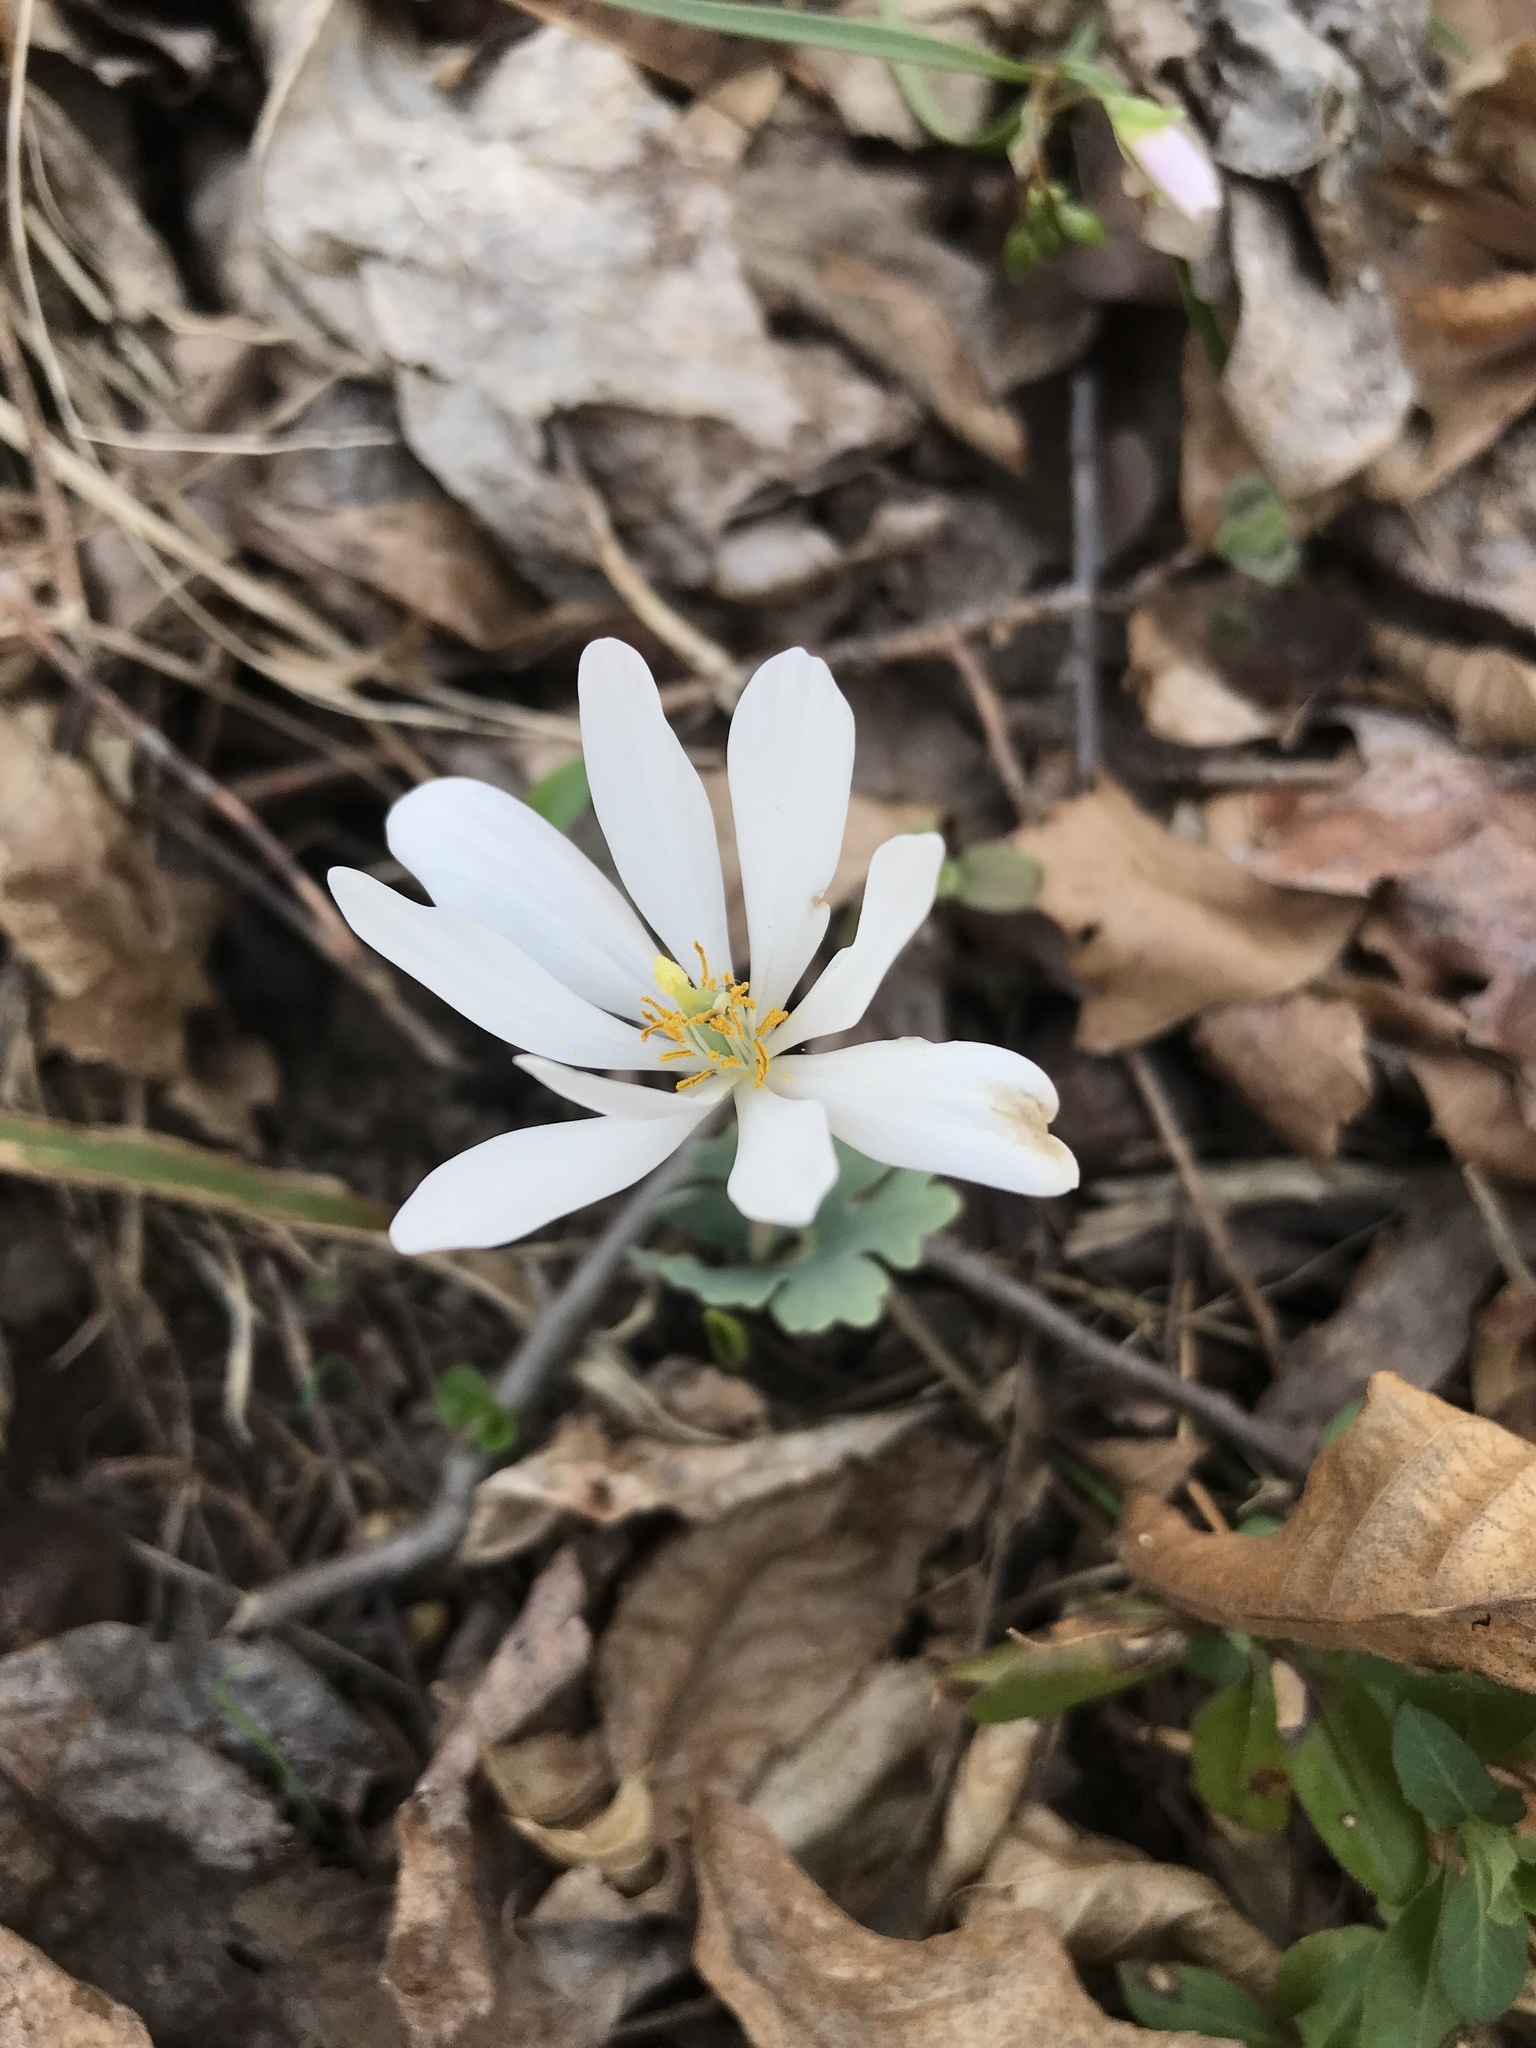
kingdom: Plantae
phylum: Tracheophyta
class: Magnoliopsida
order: Ranunculales
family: Papaveraceae
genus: Sanguinaria
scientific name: Sanguinaria canadensis
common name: Bloodroot
